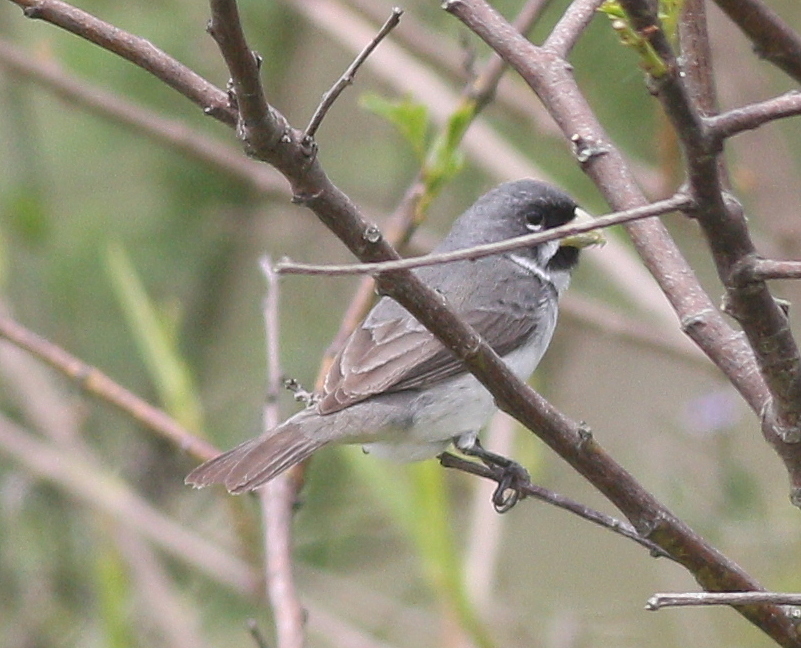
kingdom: Animalia
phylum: Chordata
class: Aves
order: Passeriformes
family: Thraupidae
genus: Sporophila
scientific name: Sporophila caerulescens
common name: Double-collared seedeater
